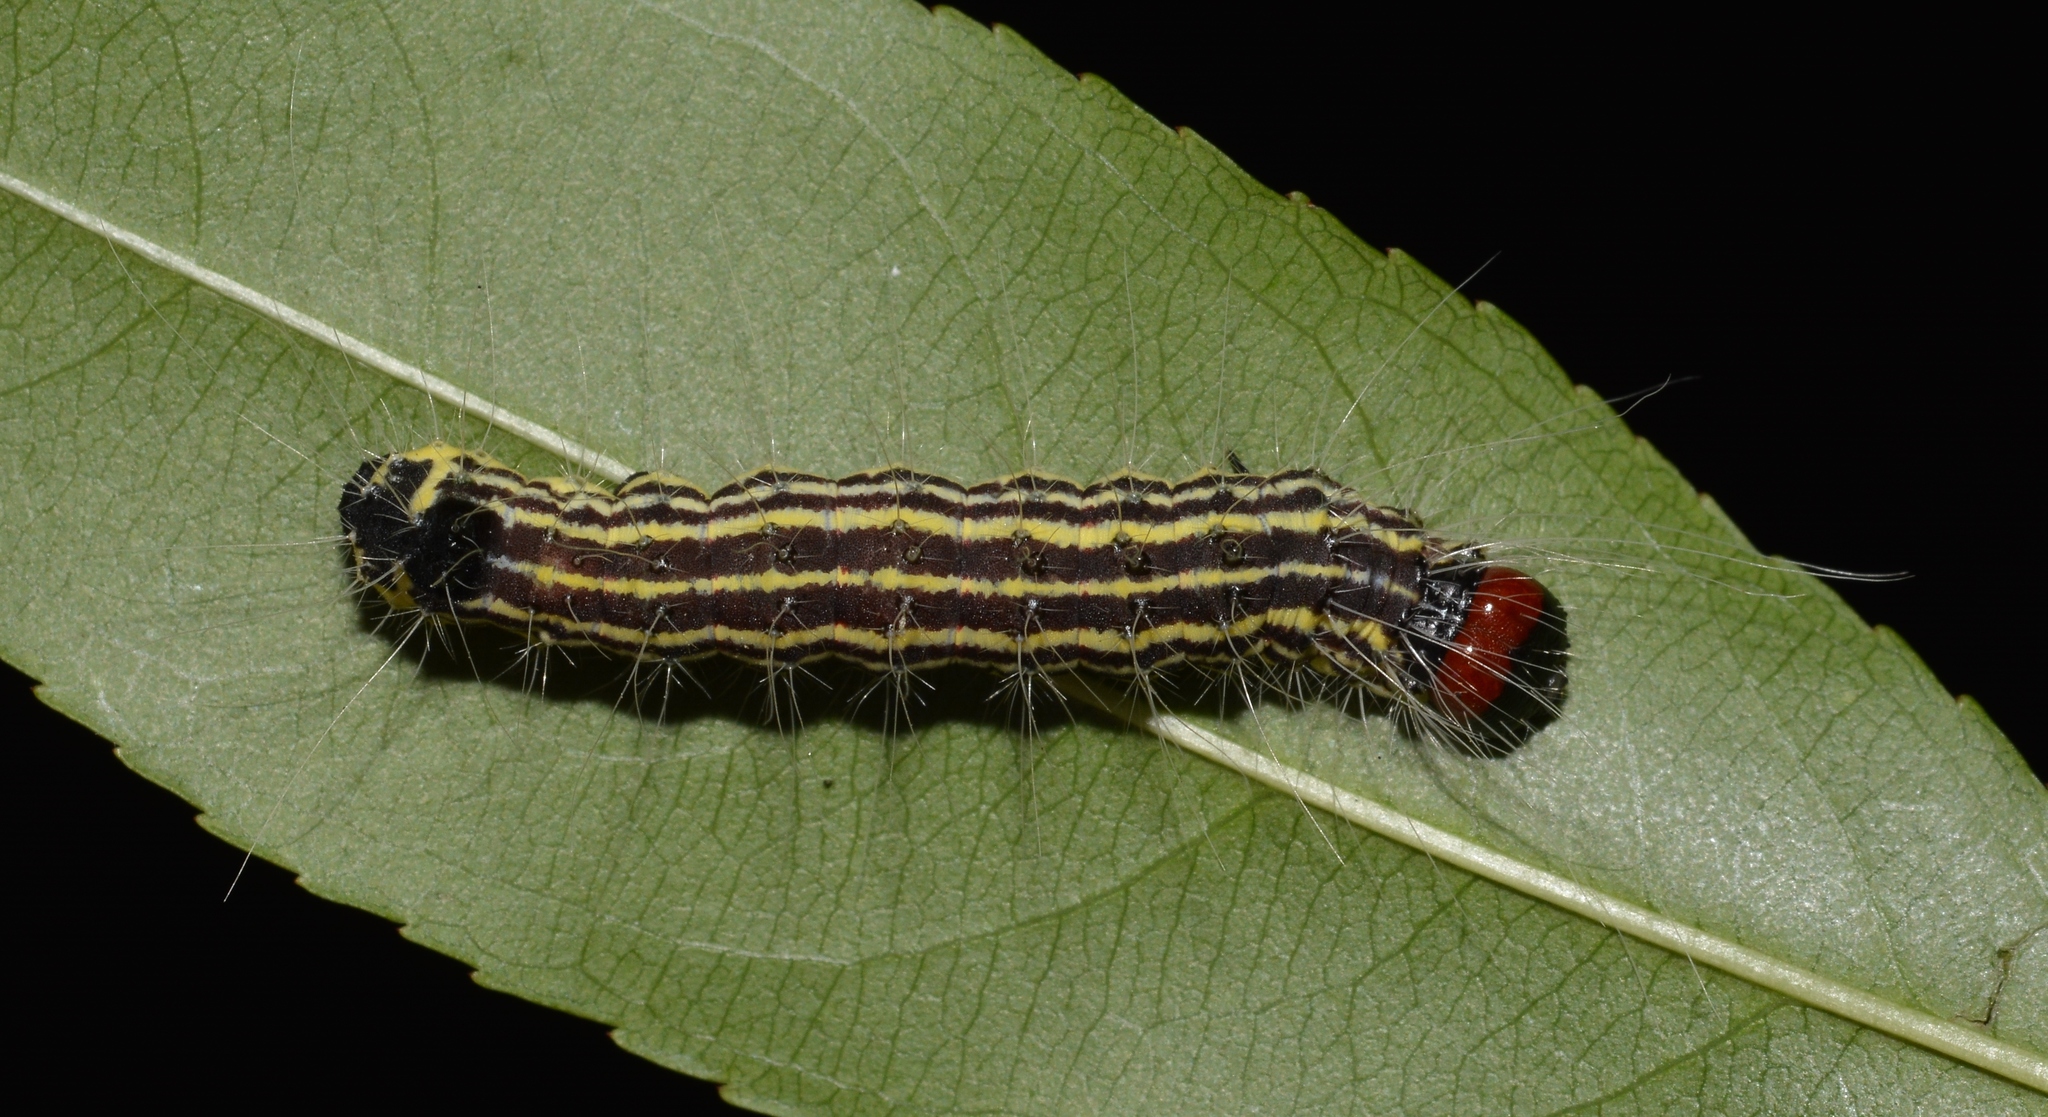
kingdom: Animalia
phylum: Arthropoda
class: Insecta
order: Lepidoptera
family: Noctuidae
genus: Acronicta
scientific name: Acronicta radcliffei
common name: Radcliffe's dagger
